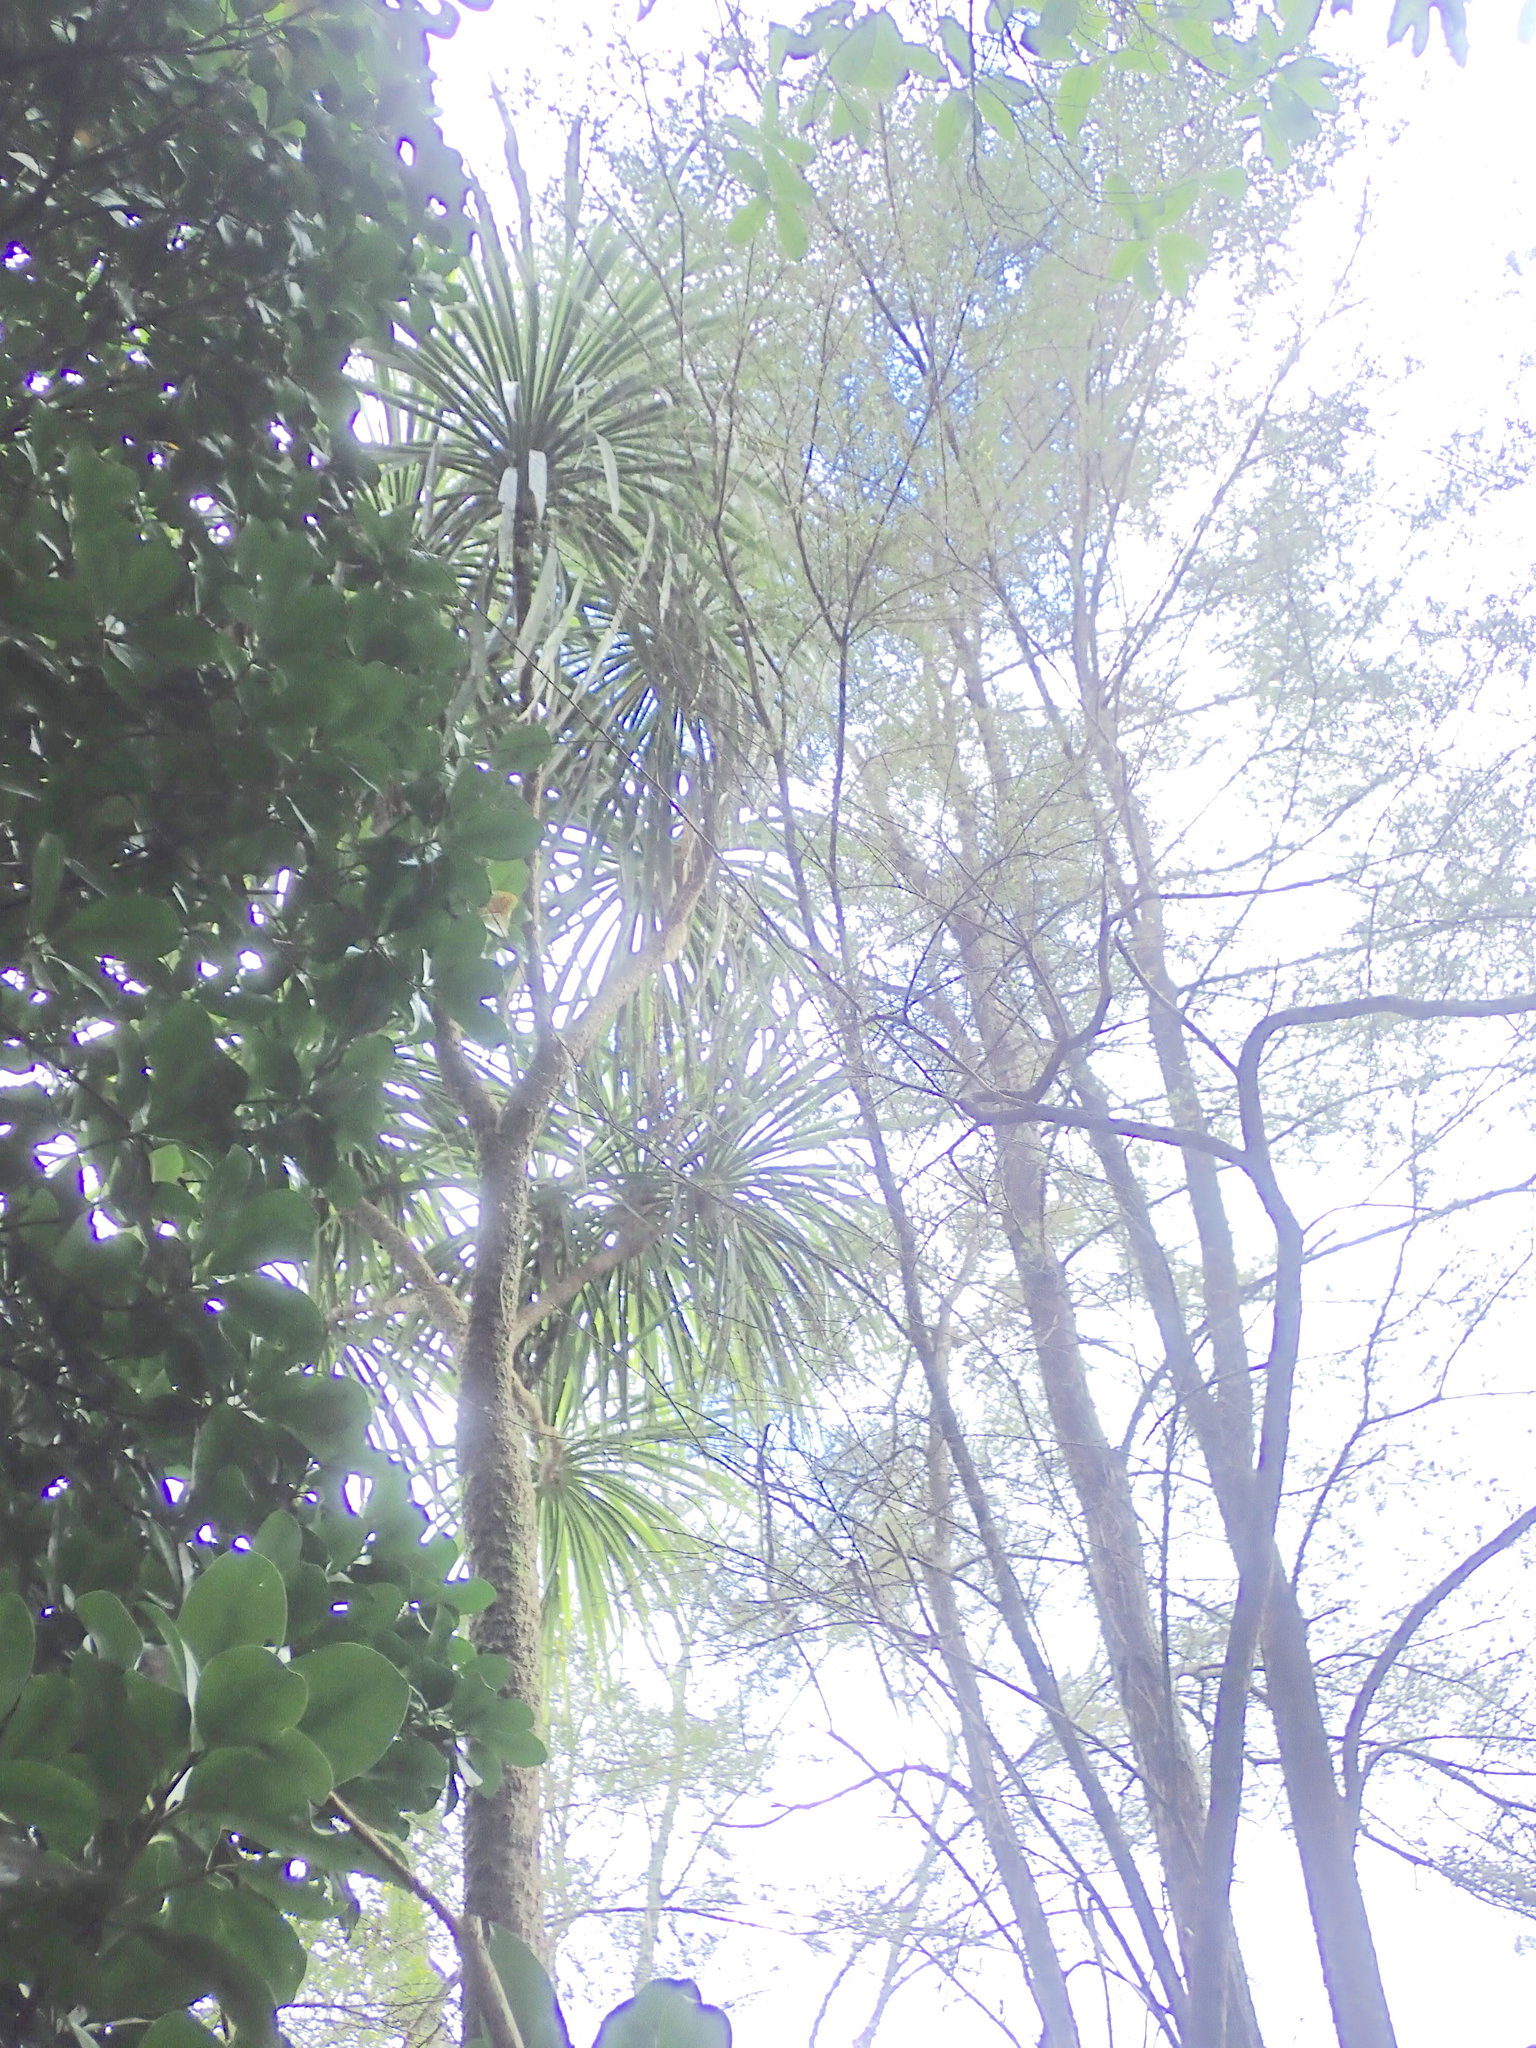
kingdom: Plantae
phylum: Tracheophyta
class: Magnoliopsida
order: Cucurbitales
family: Corynocarpaceae
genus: Corynocarpus
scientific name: Corynocarpus laevigatus
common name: New zealand laurel
